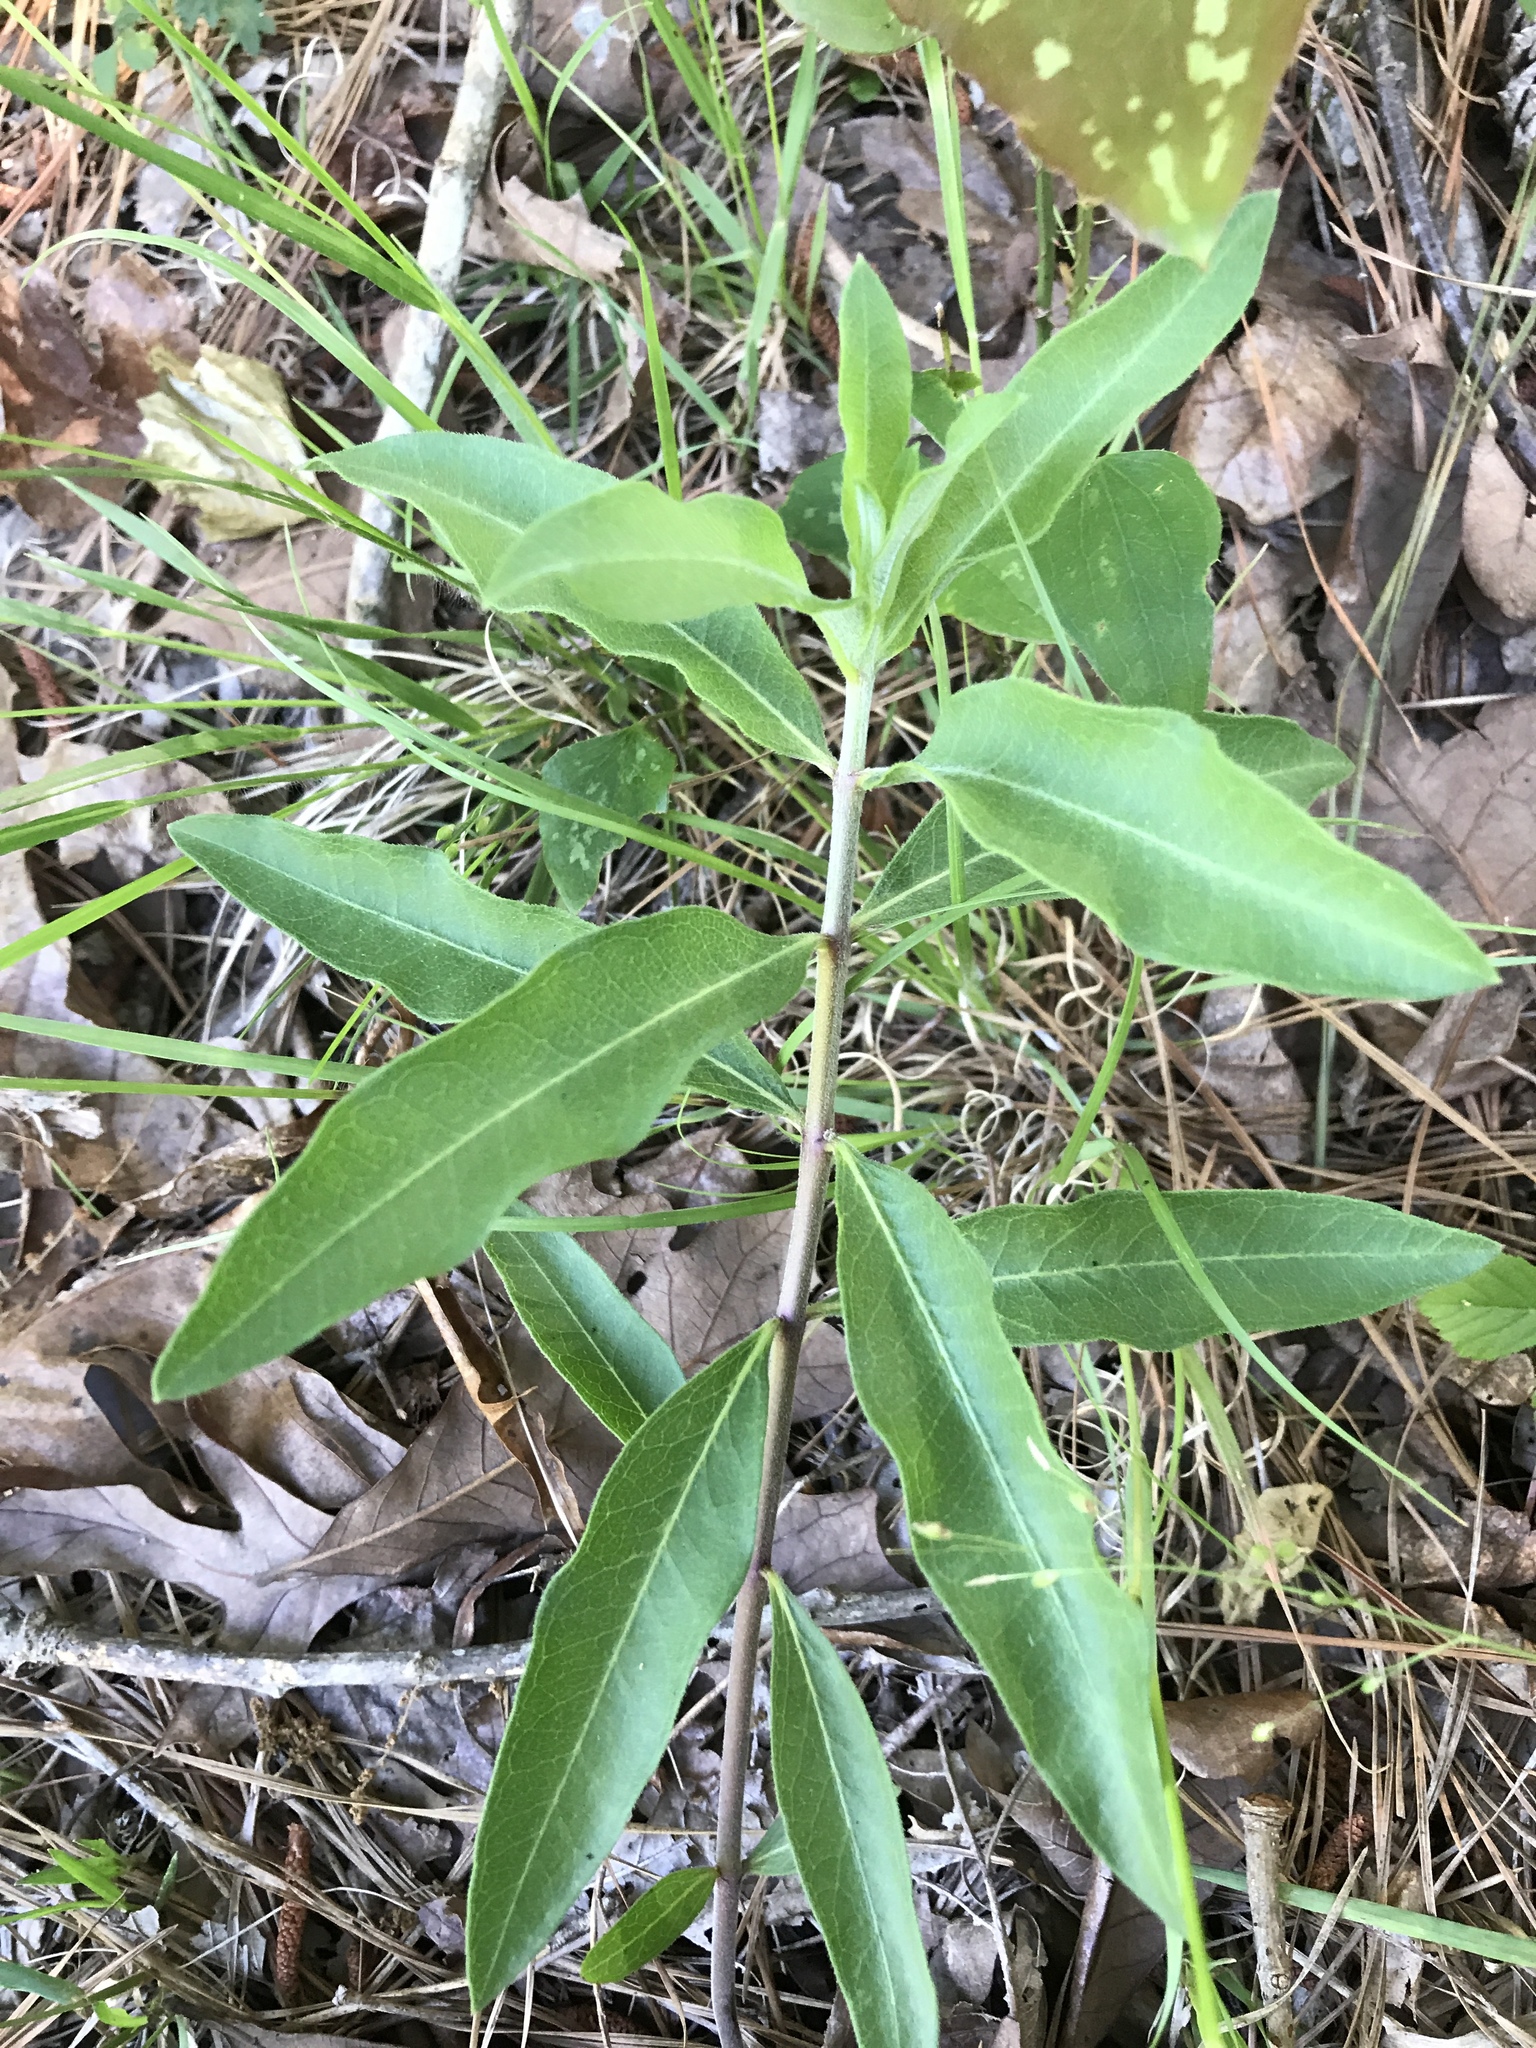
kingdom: Plantae
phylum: Tracheophyta
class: Magnoliopsida
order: Gentianales
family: Apocynaceae
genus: Asclepias
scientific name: Asclepias viridiflora
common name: Green comet milkweed
